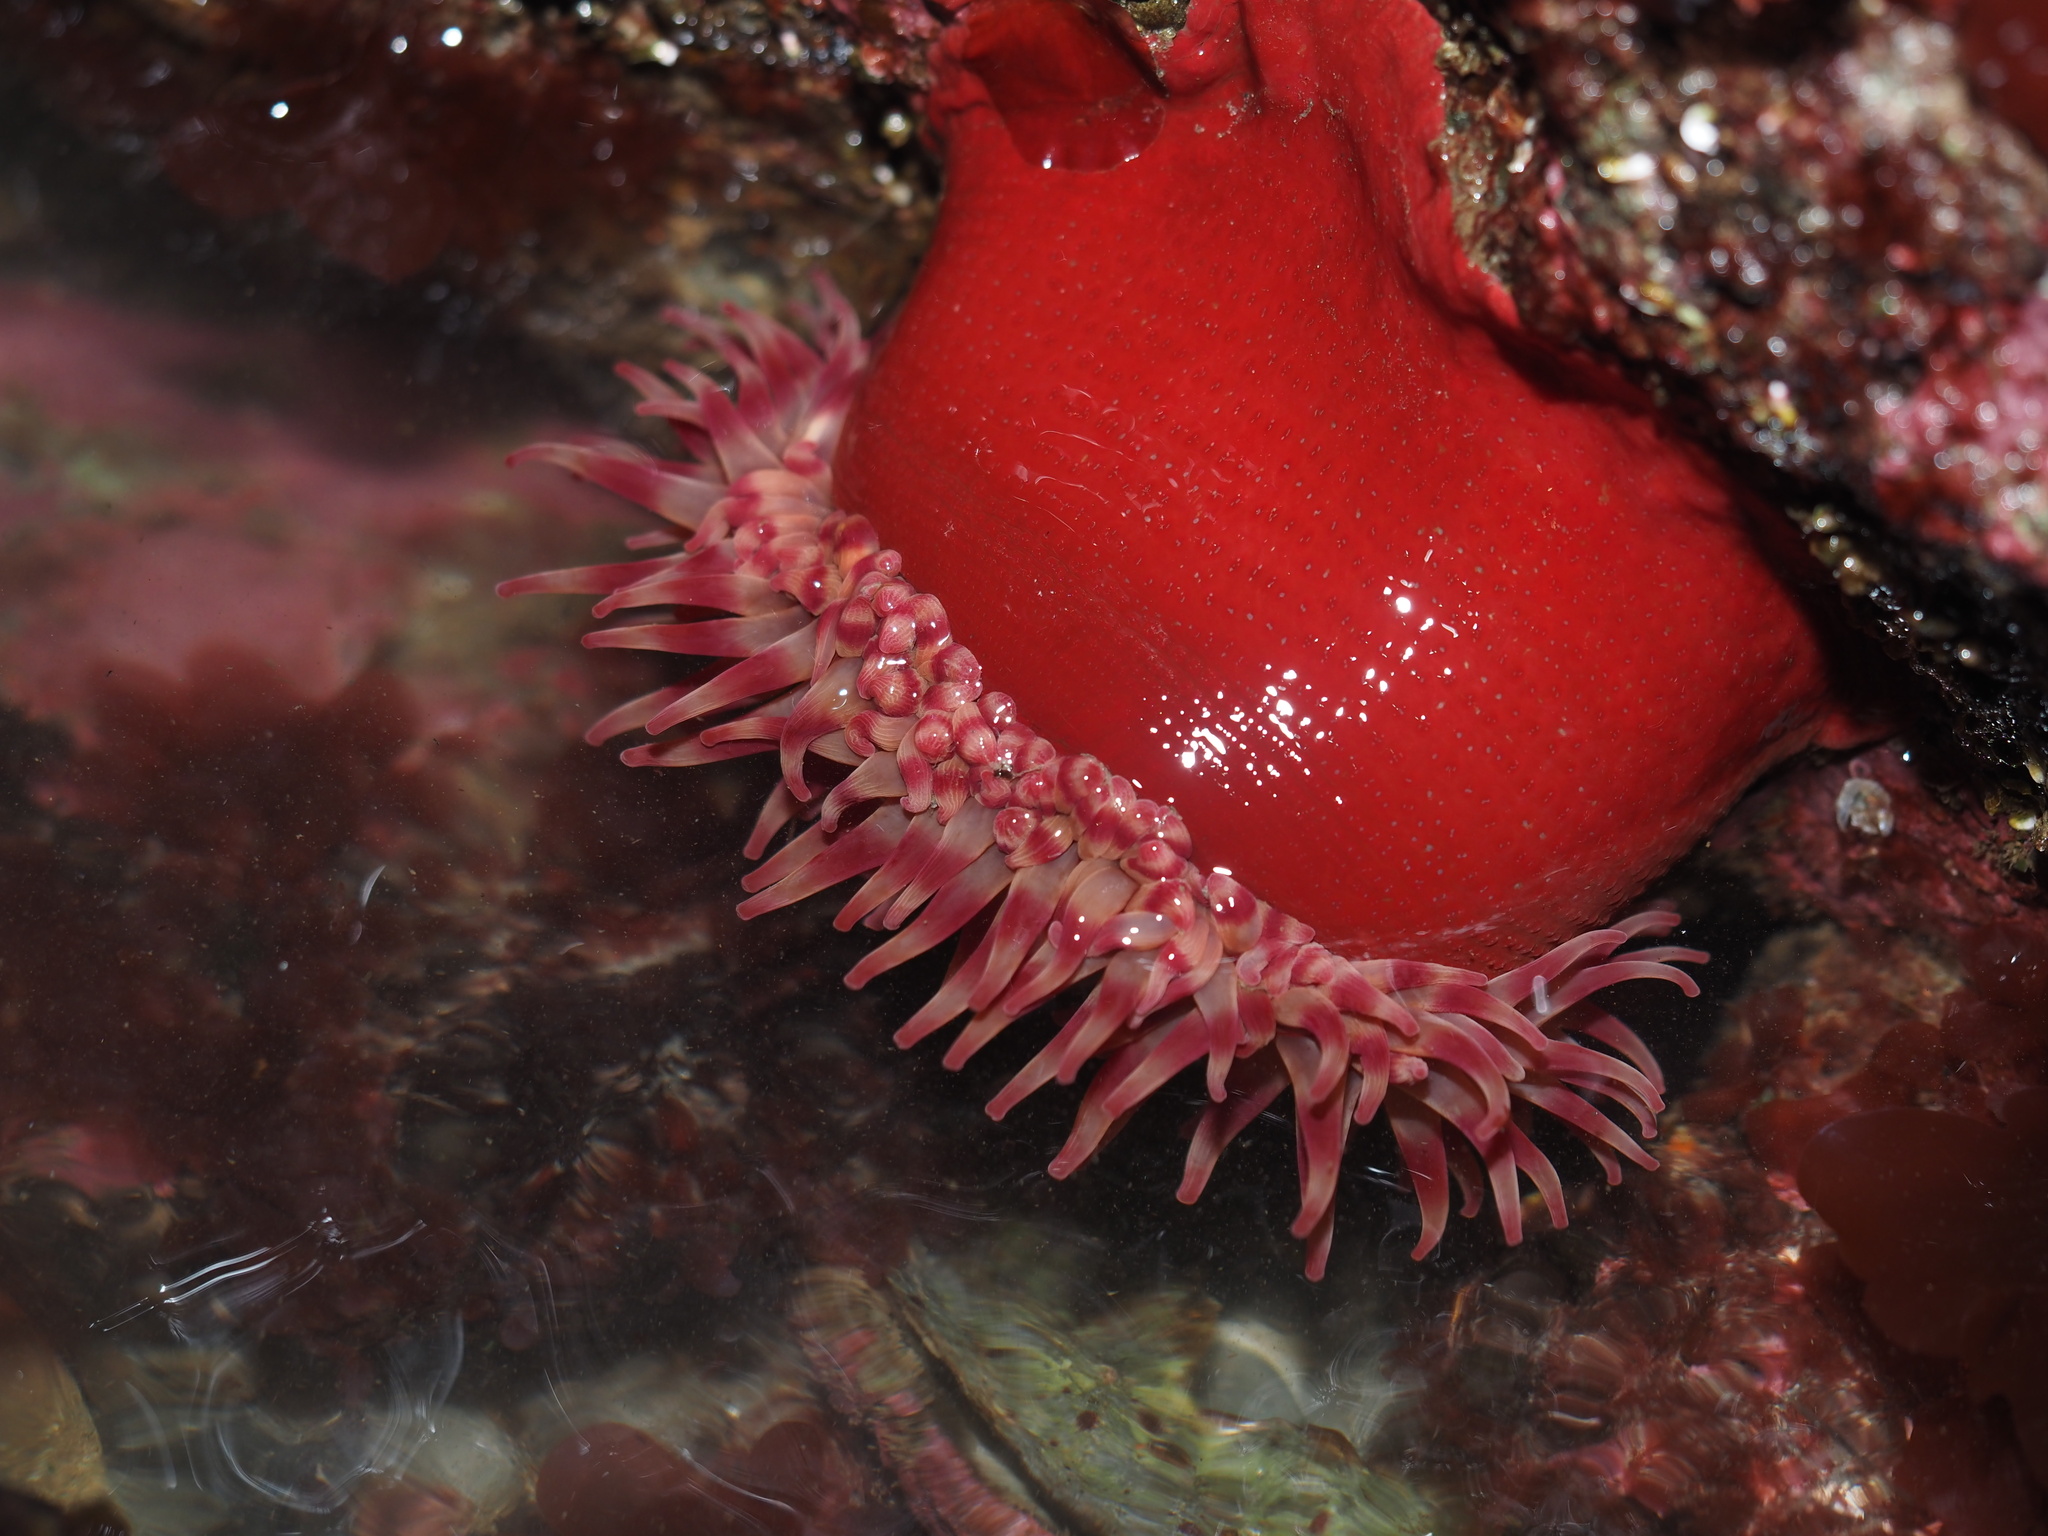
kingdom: Animalia
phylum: Cnidaria
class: Anthozoa
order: Actiniaria
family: Actiniidae
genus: Urticina
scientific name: Urticina grebelnyi
